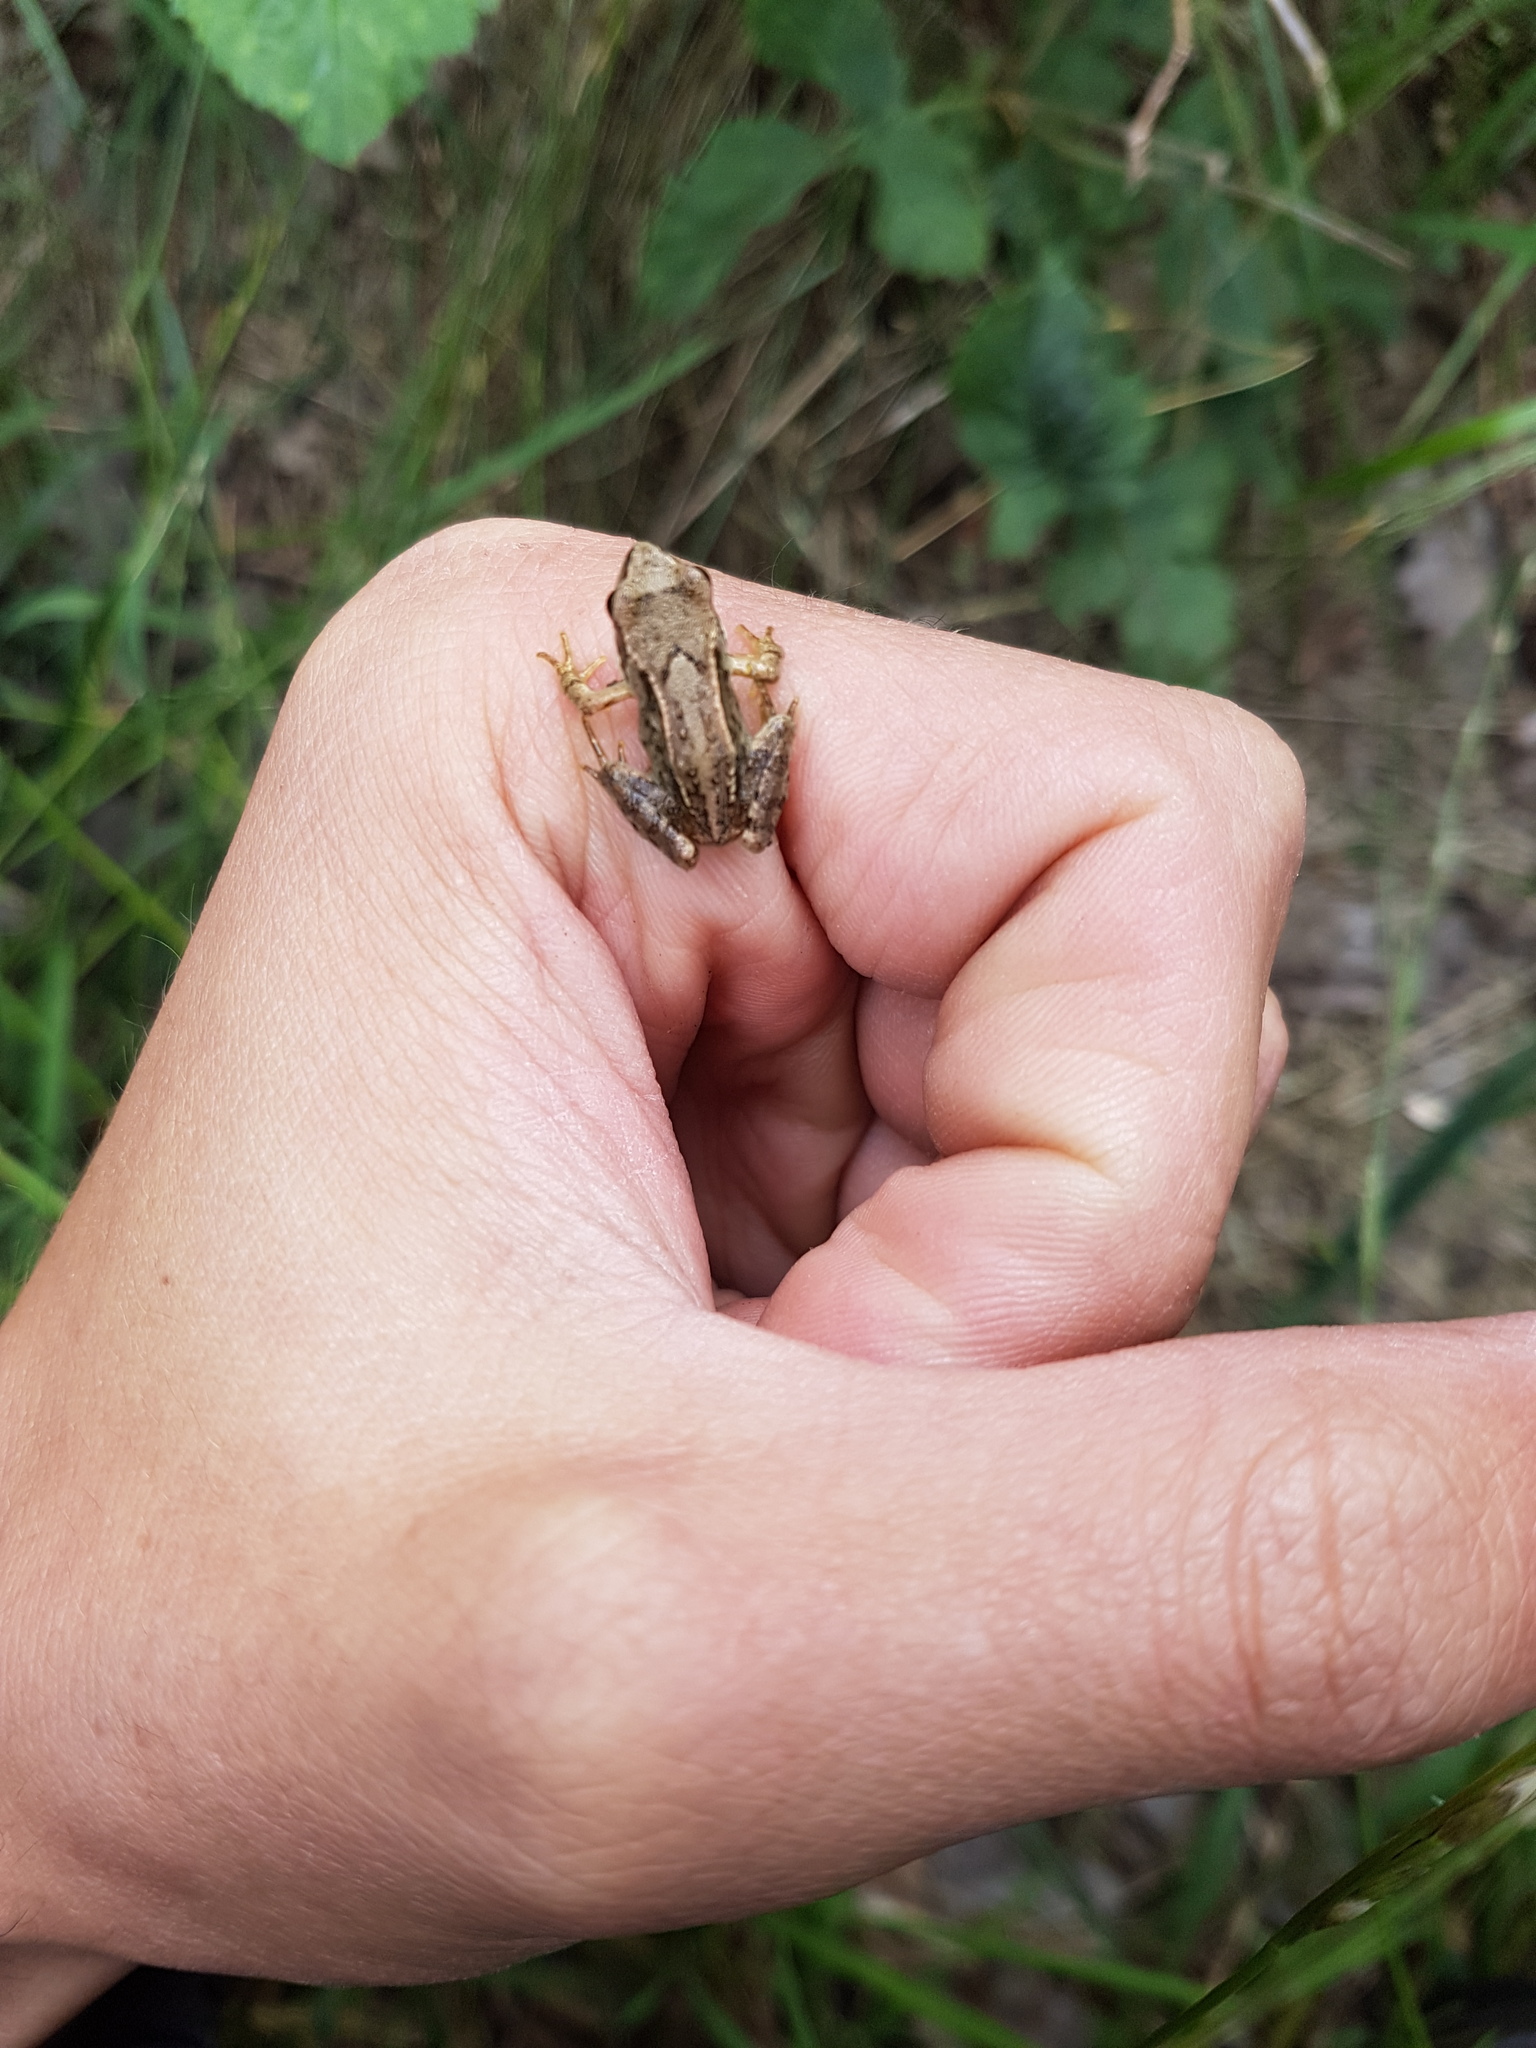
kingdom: Animalia
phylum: Chordata
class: Amphibia
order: Anura
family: Ranidae
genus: Rana
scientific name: Rana temporaria
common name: Common frog
